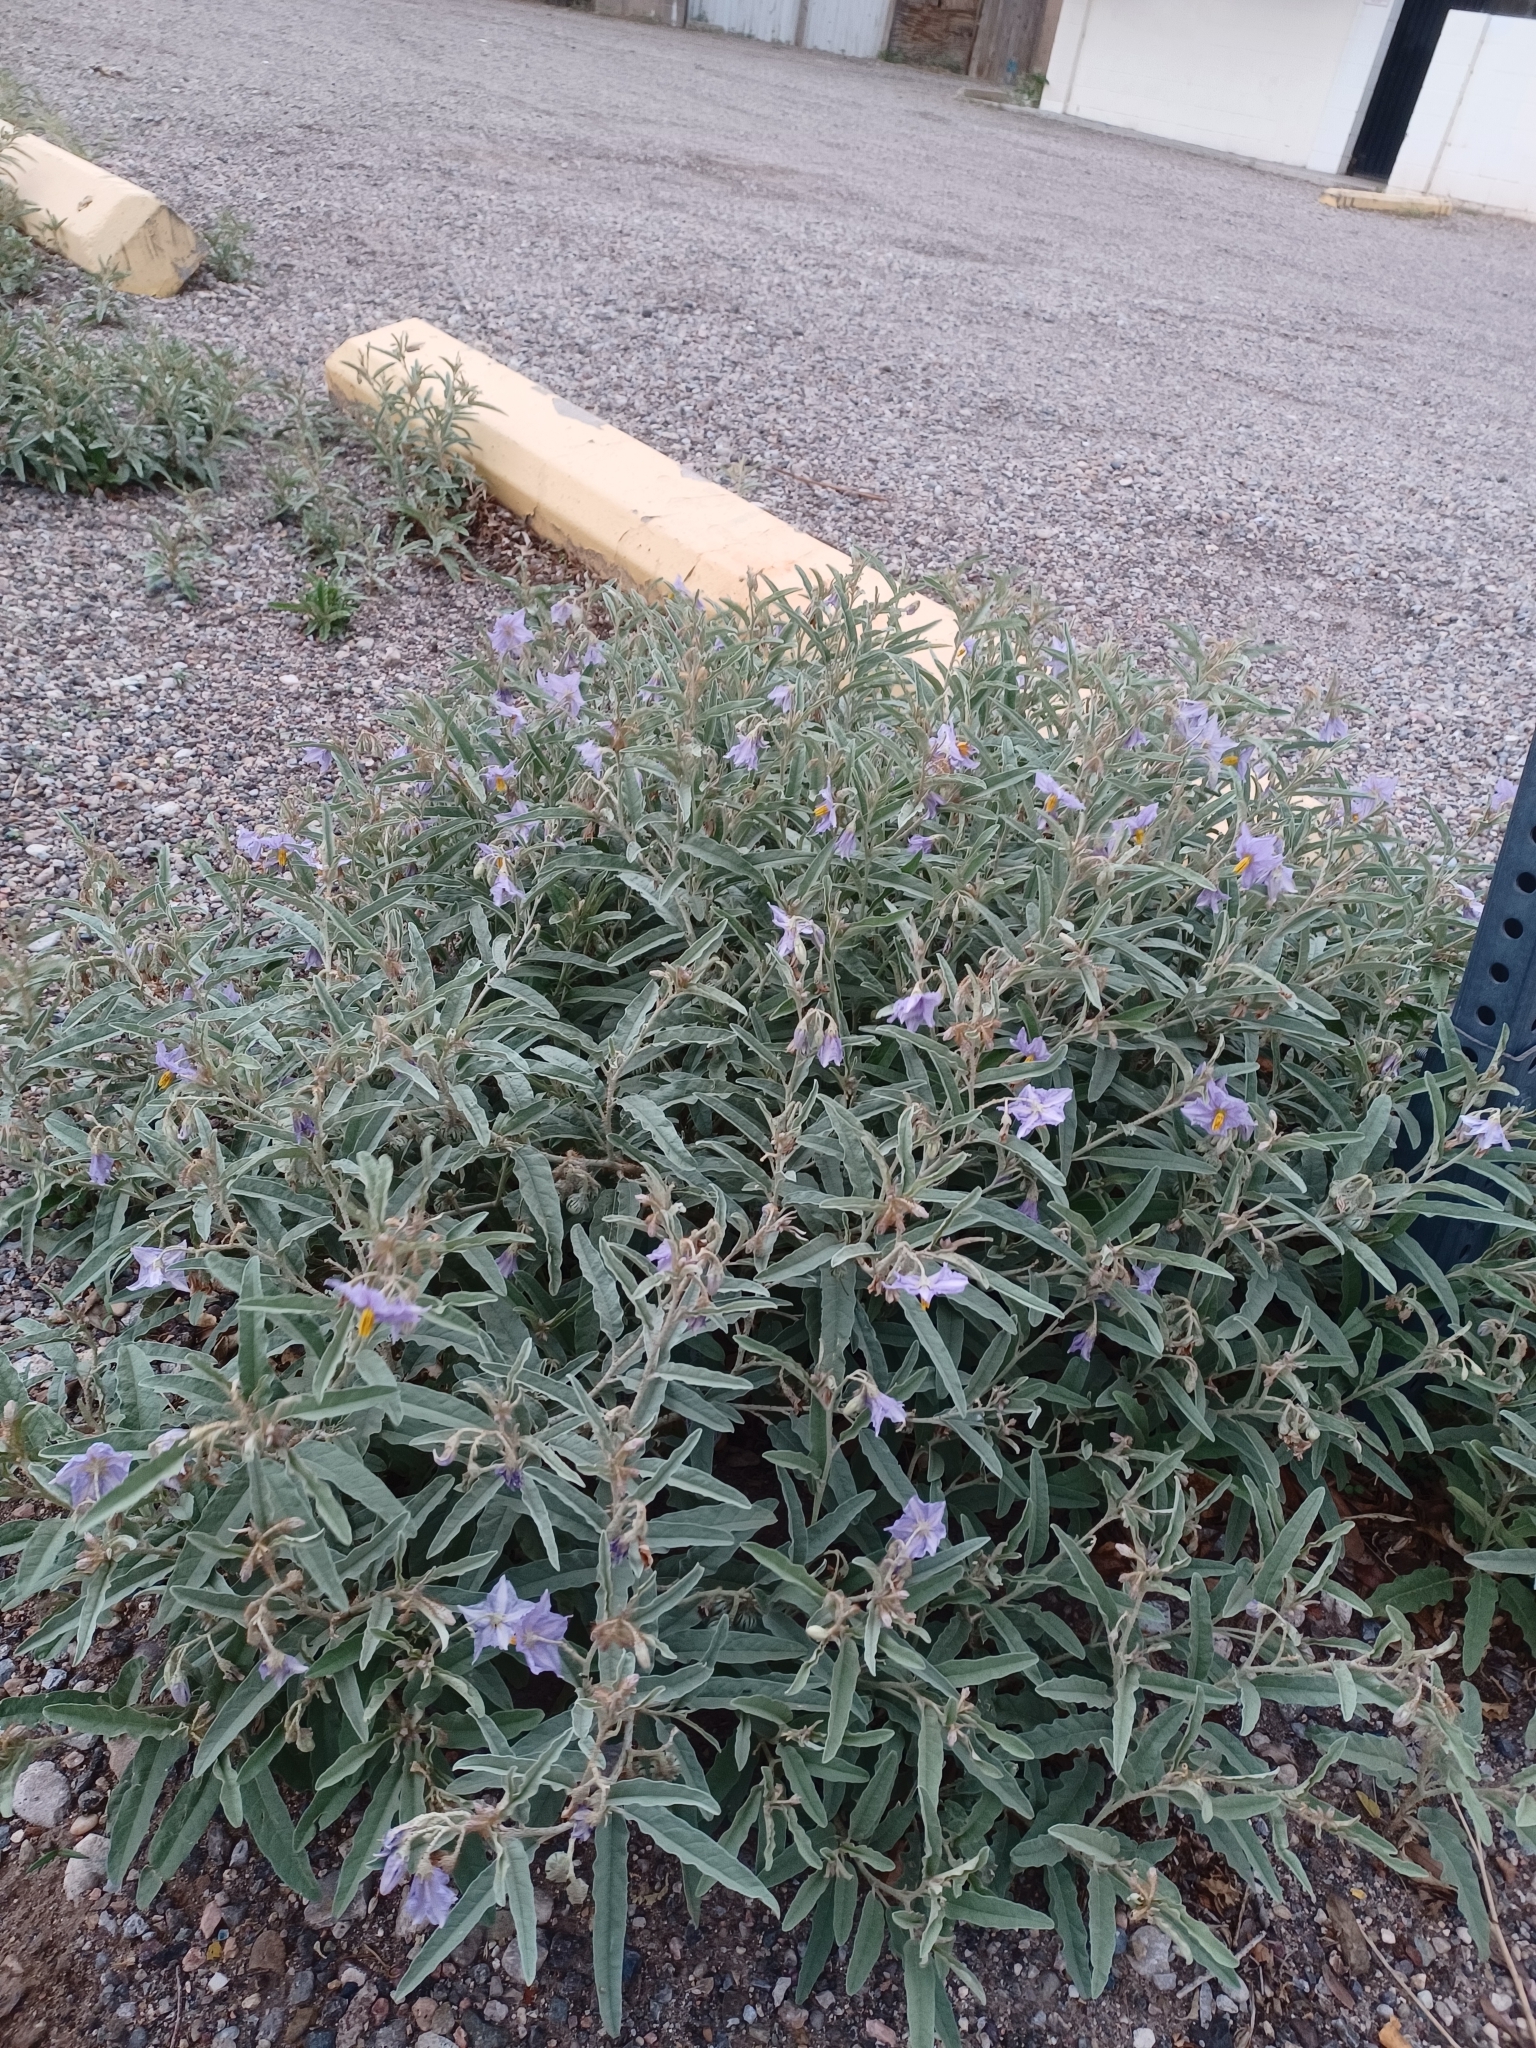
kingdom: Plantae
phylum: Tracheophyta
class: Magnoliopsida
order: Solanales
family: Solanaceae
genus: Solanum
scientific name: Solanum elaeagnifolium
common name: Silverleaf nightshade
